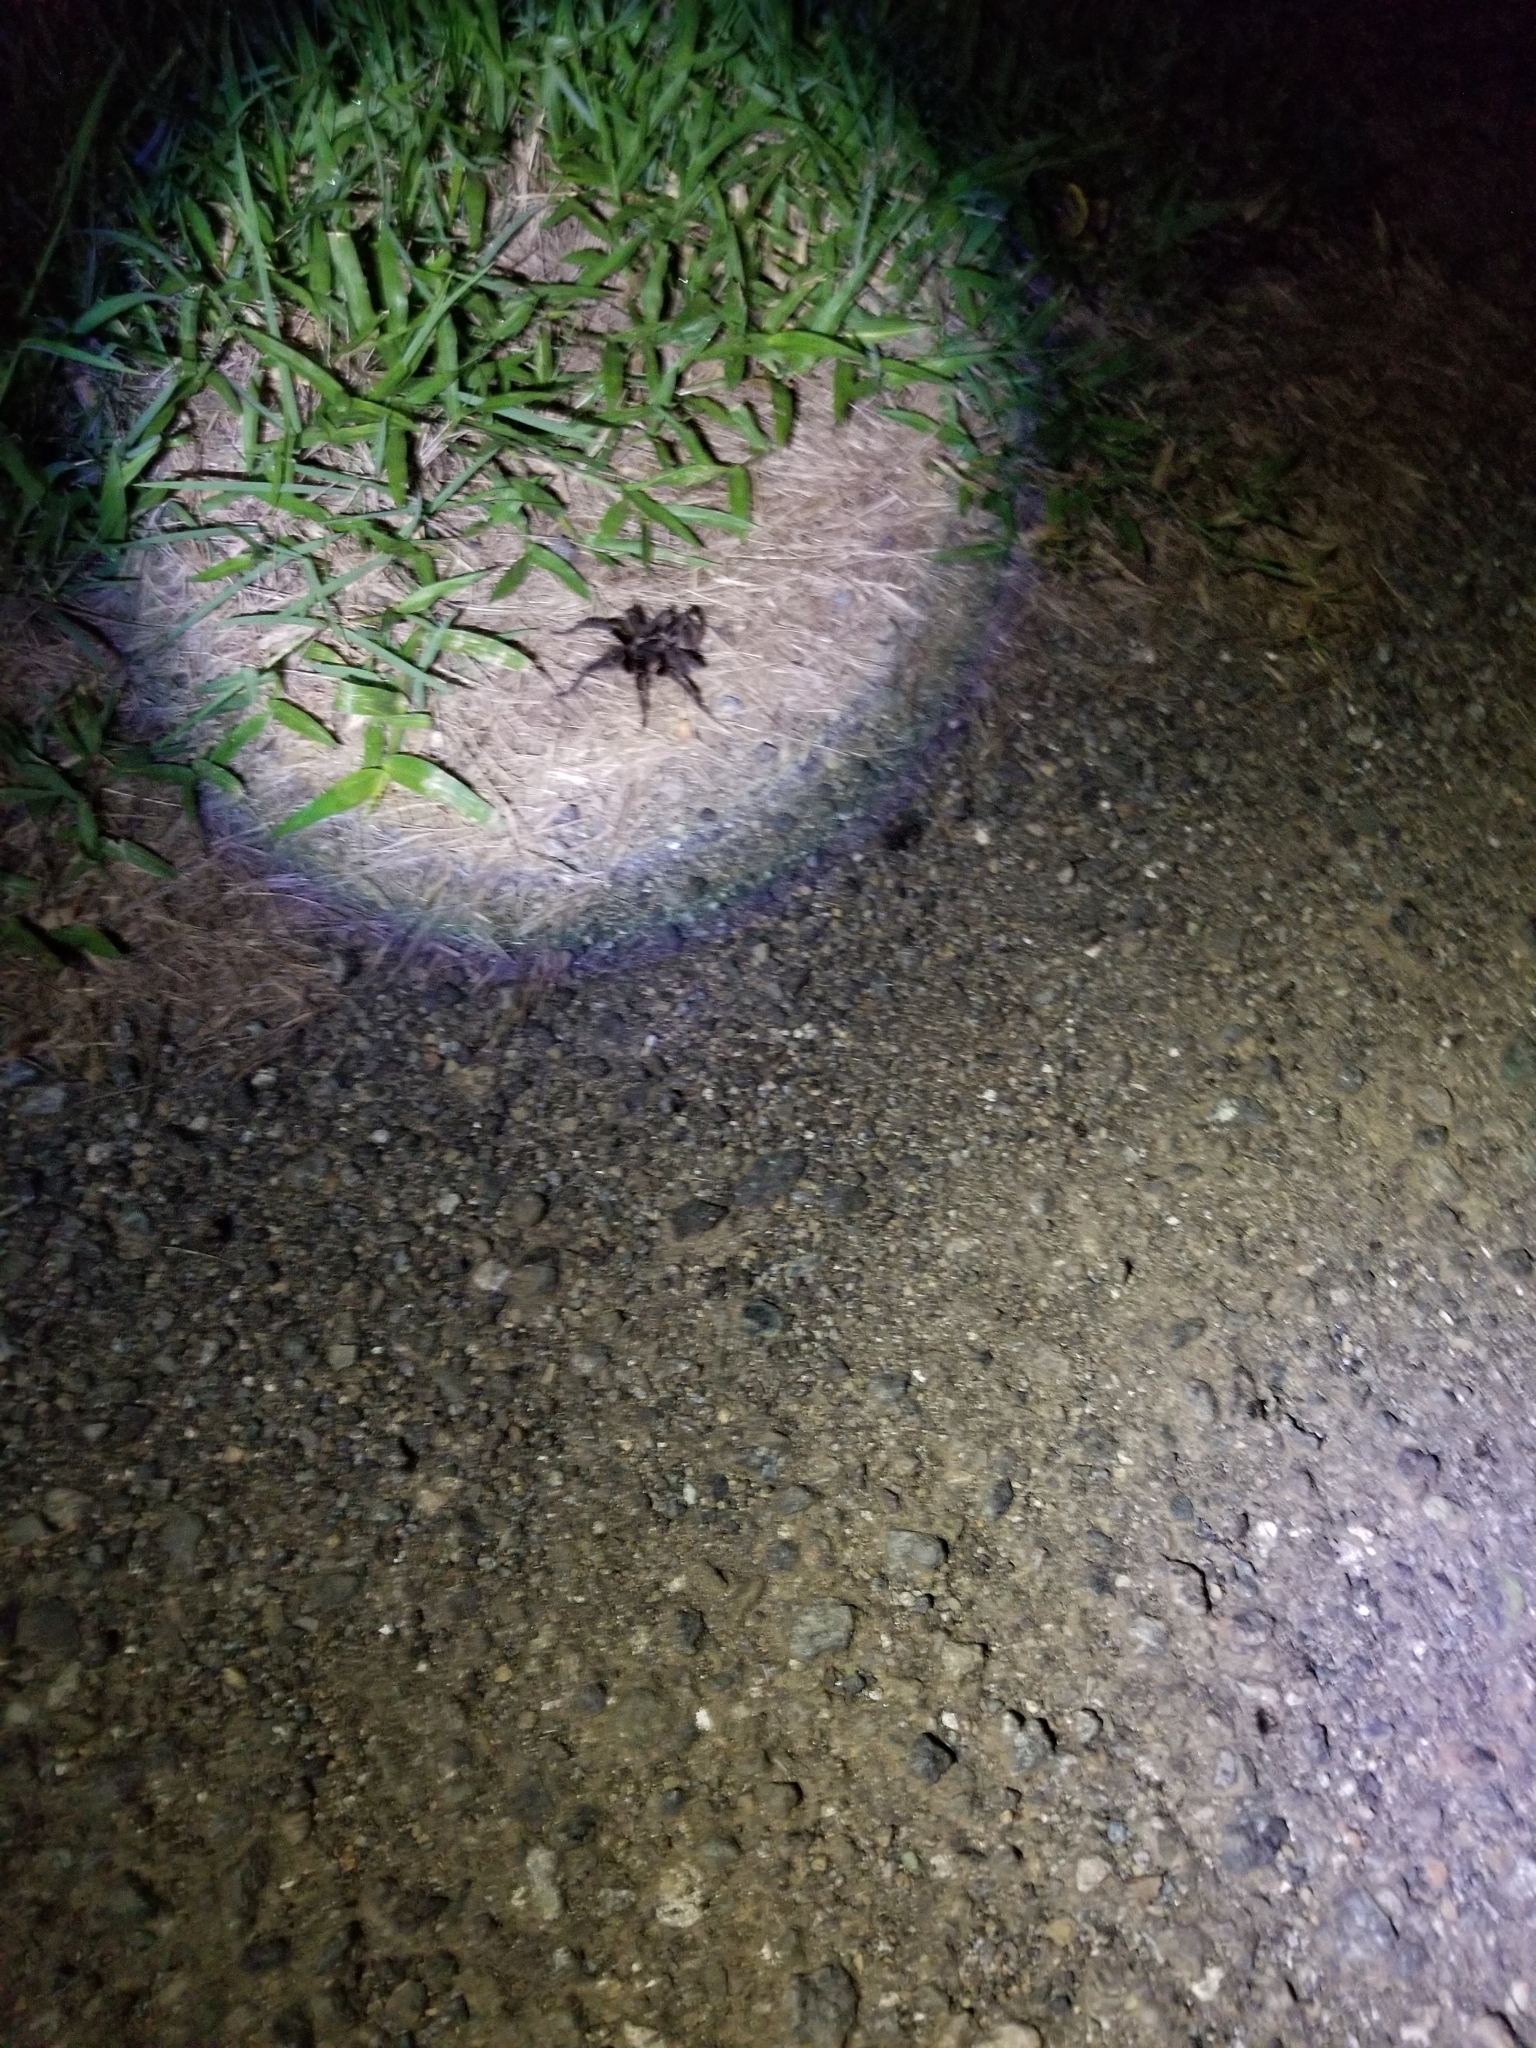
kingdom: Animalia
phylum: Arthropoda
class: Arachnida
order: Araneae
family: Theraphosidae
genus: Cyrtopholis
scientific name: Cyrtopholis portoricae
